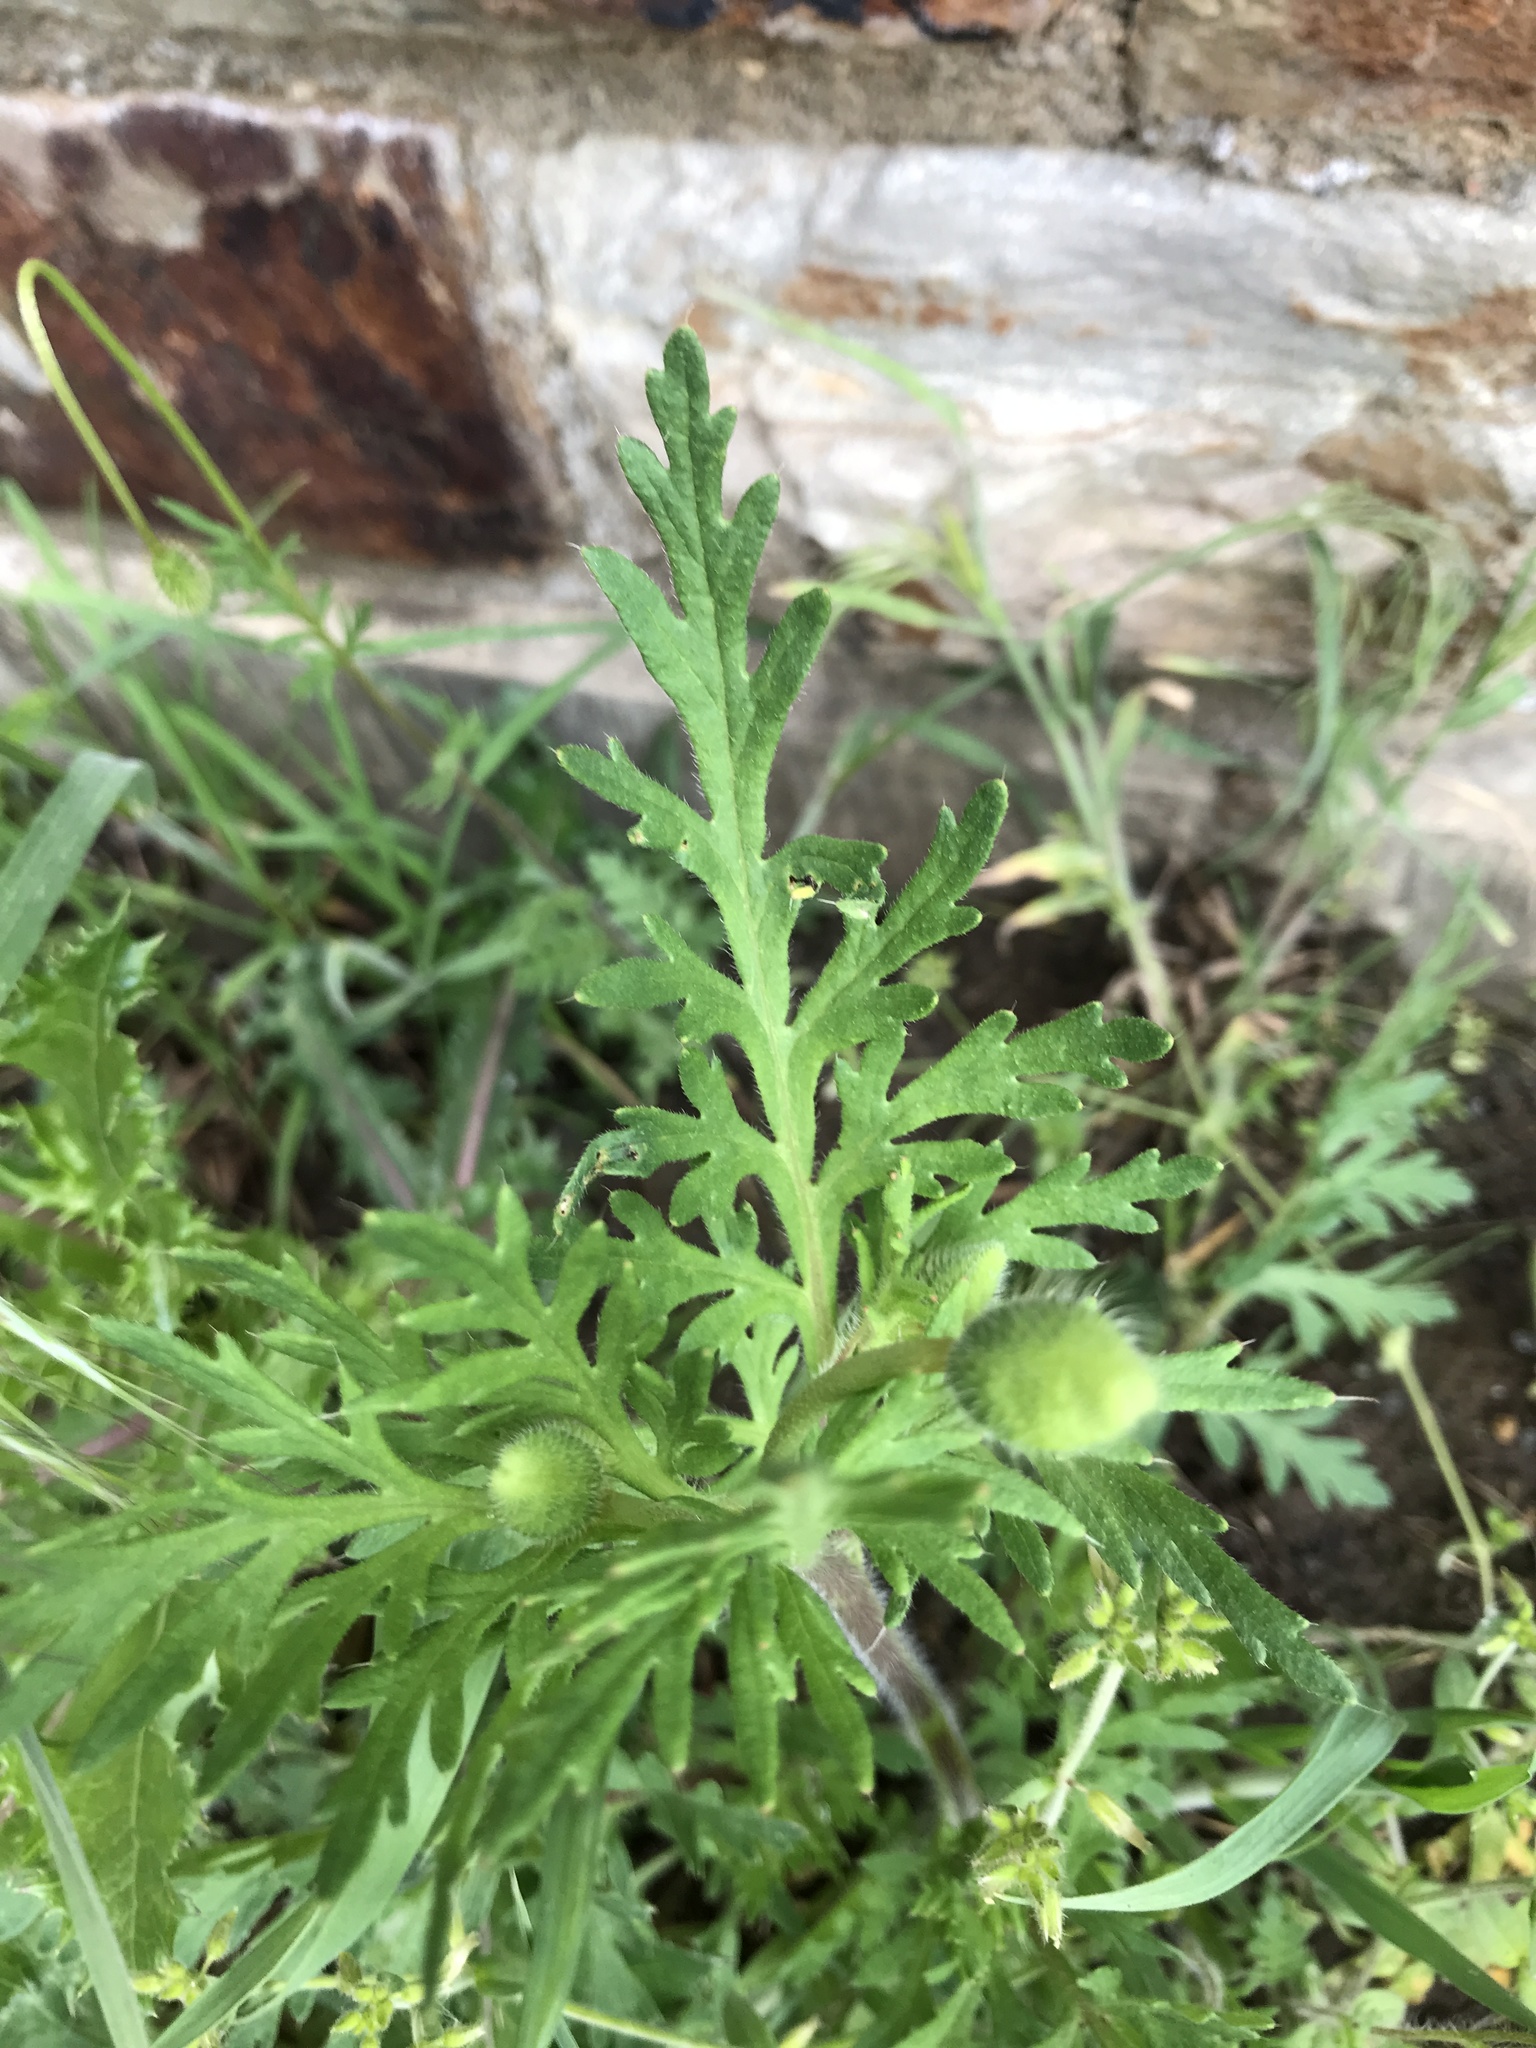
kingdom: Plantae
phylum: Tracheophyta
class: Magnoliopsida
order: Ranunculales
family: Papaveraceae
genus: Papaver
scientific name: Papaver dubium
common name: Long-headed poppy
